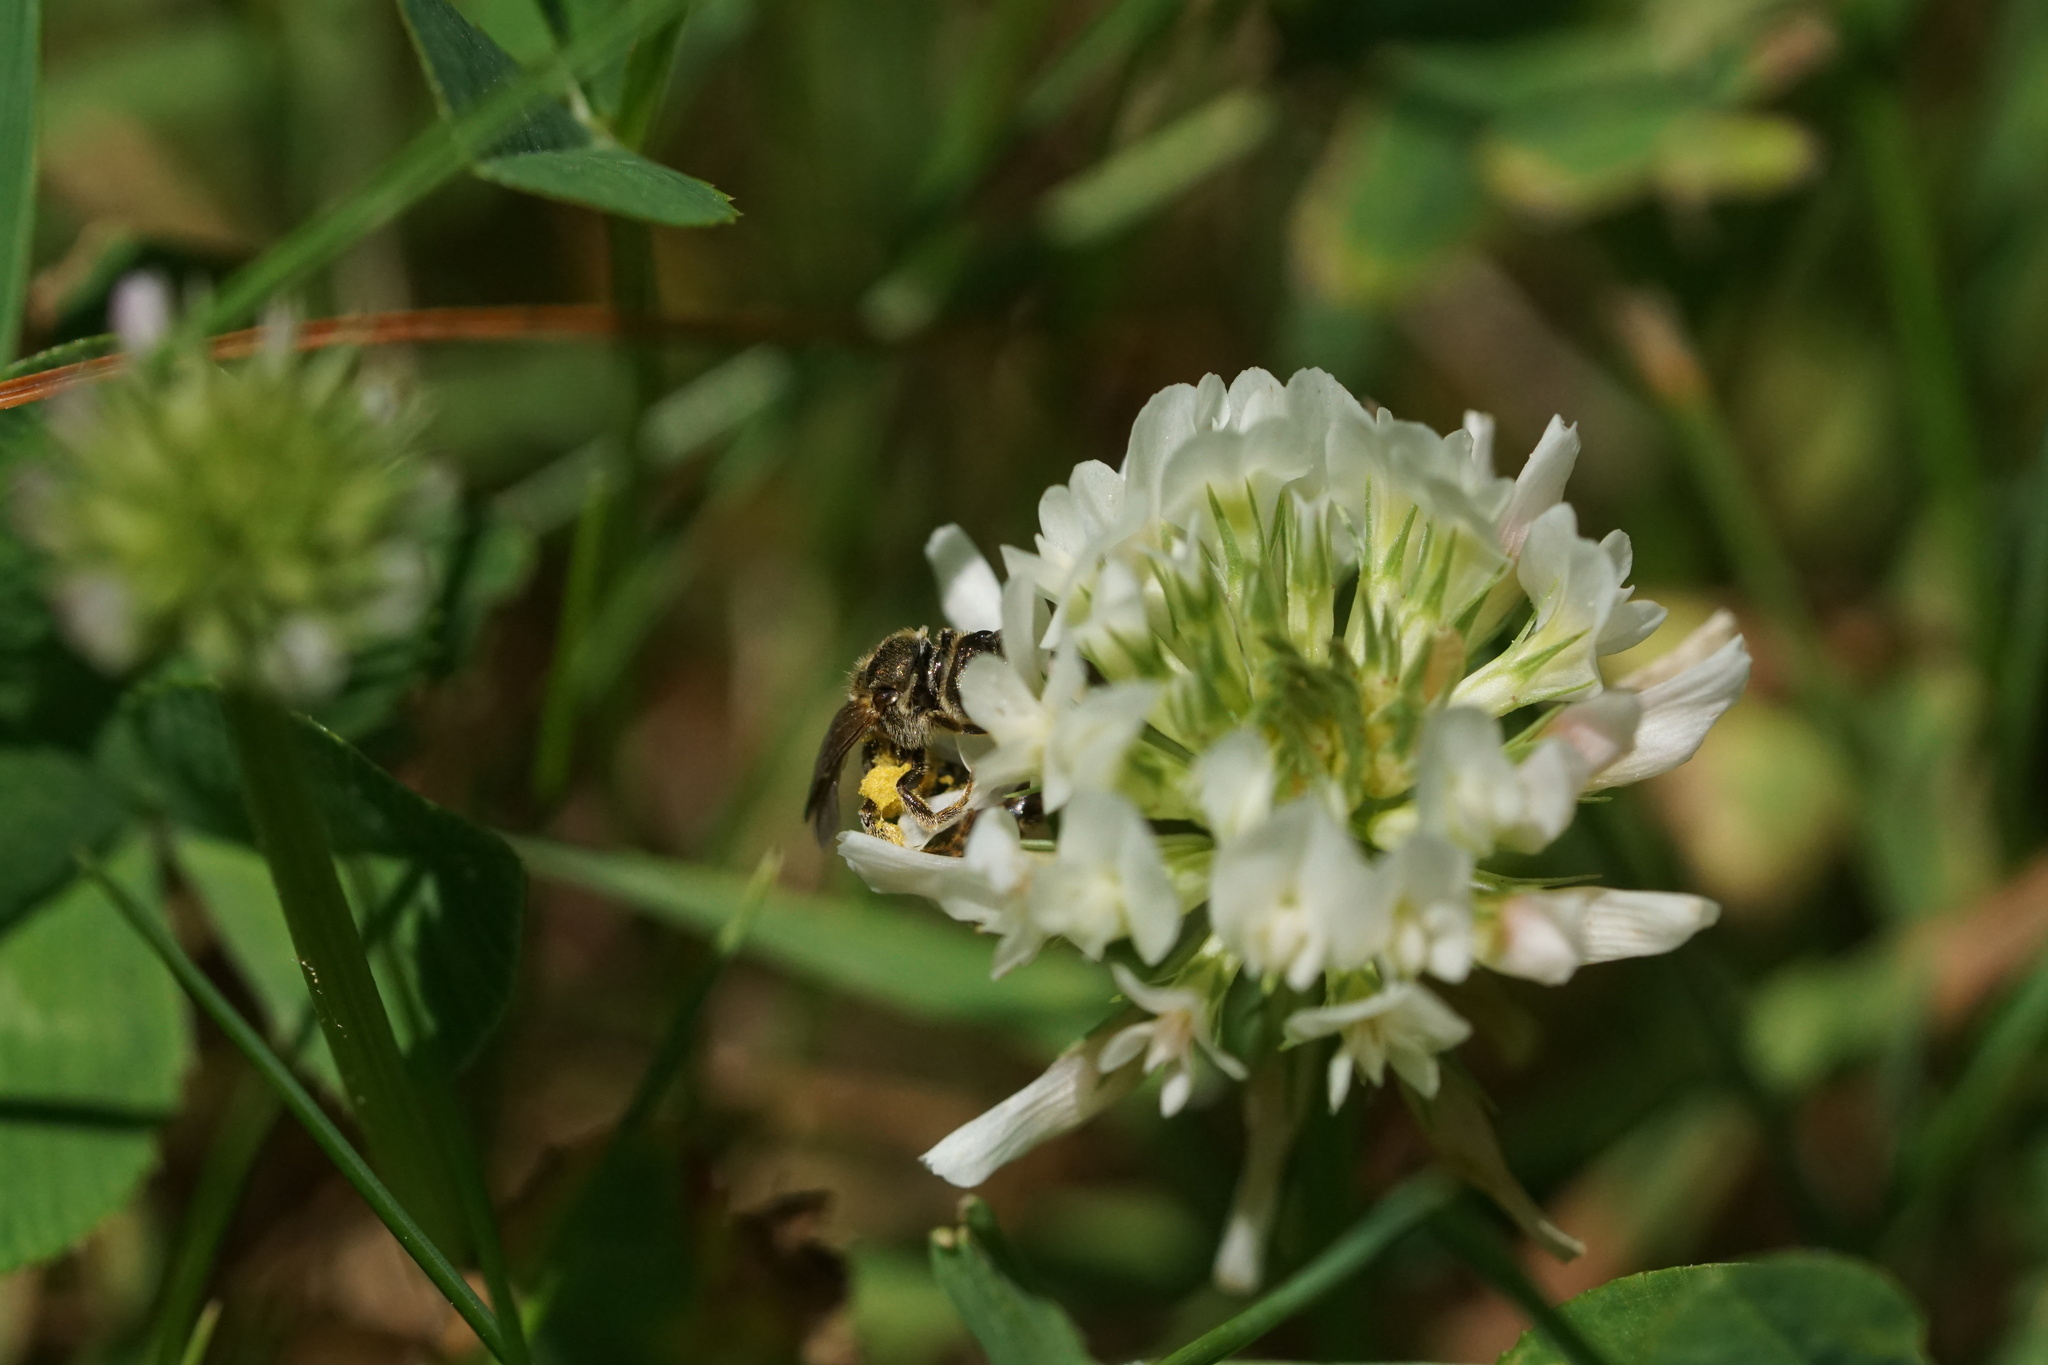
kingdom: Animalia
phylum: Arthropoda
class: Insecta
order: Hymenoptera
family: Halictidae
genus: Halictus
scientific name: Halictus confusus
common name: Southern bronze furrow bee
